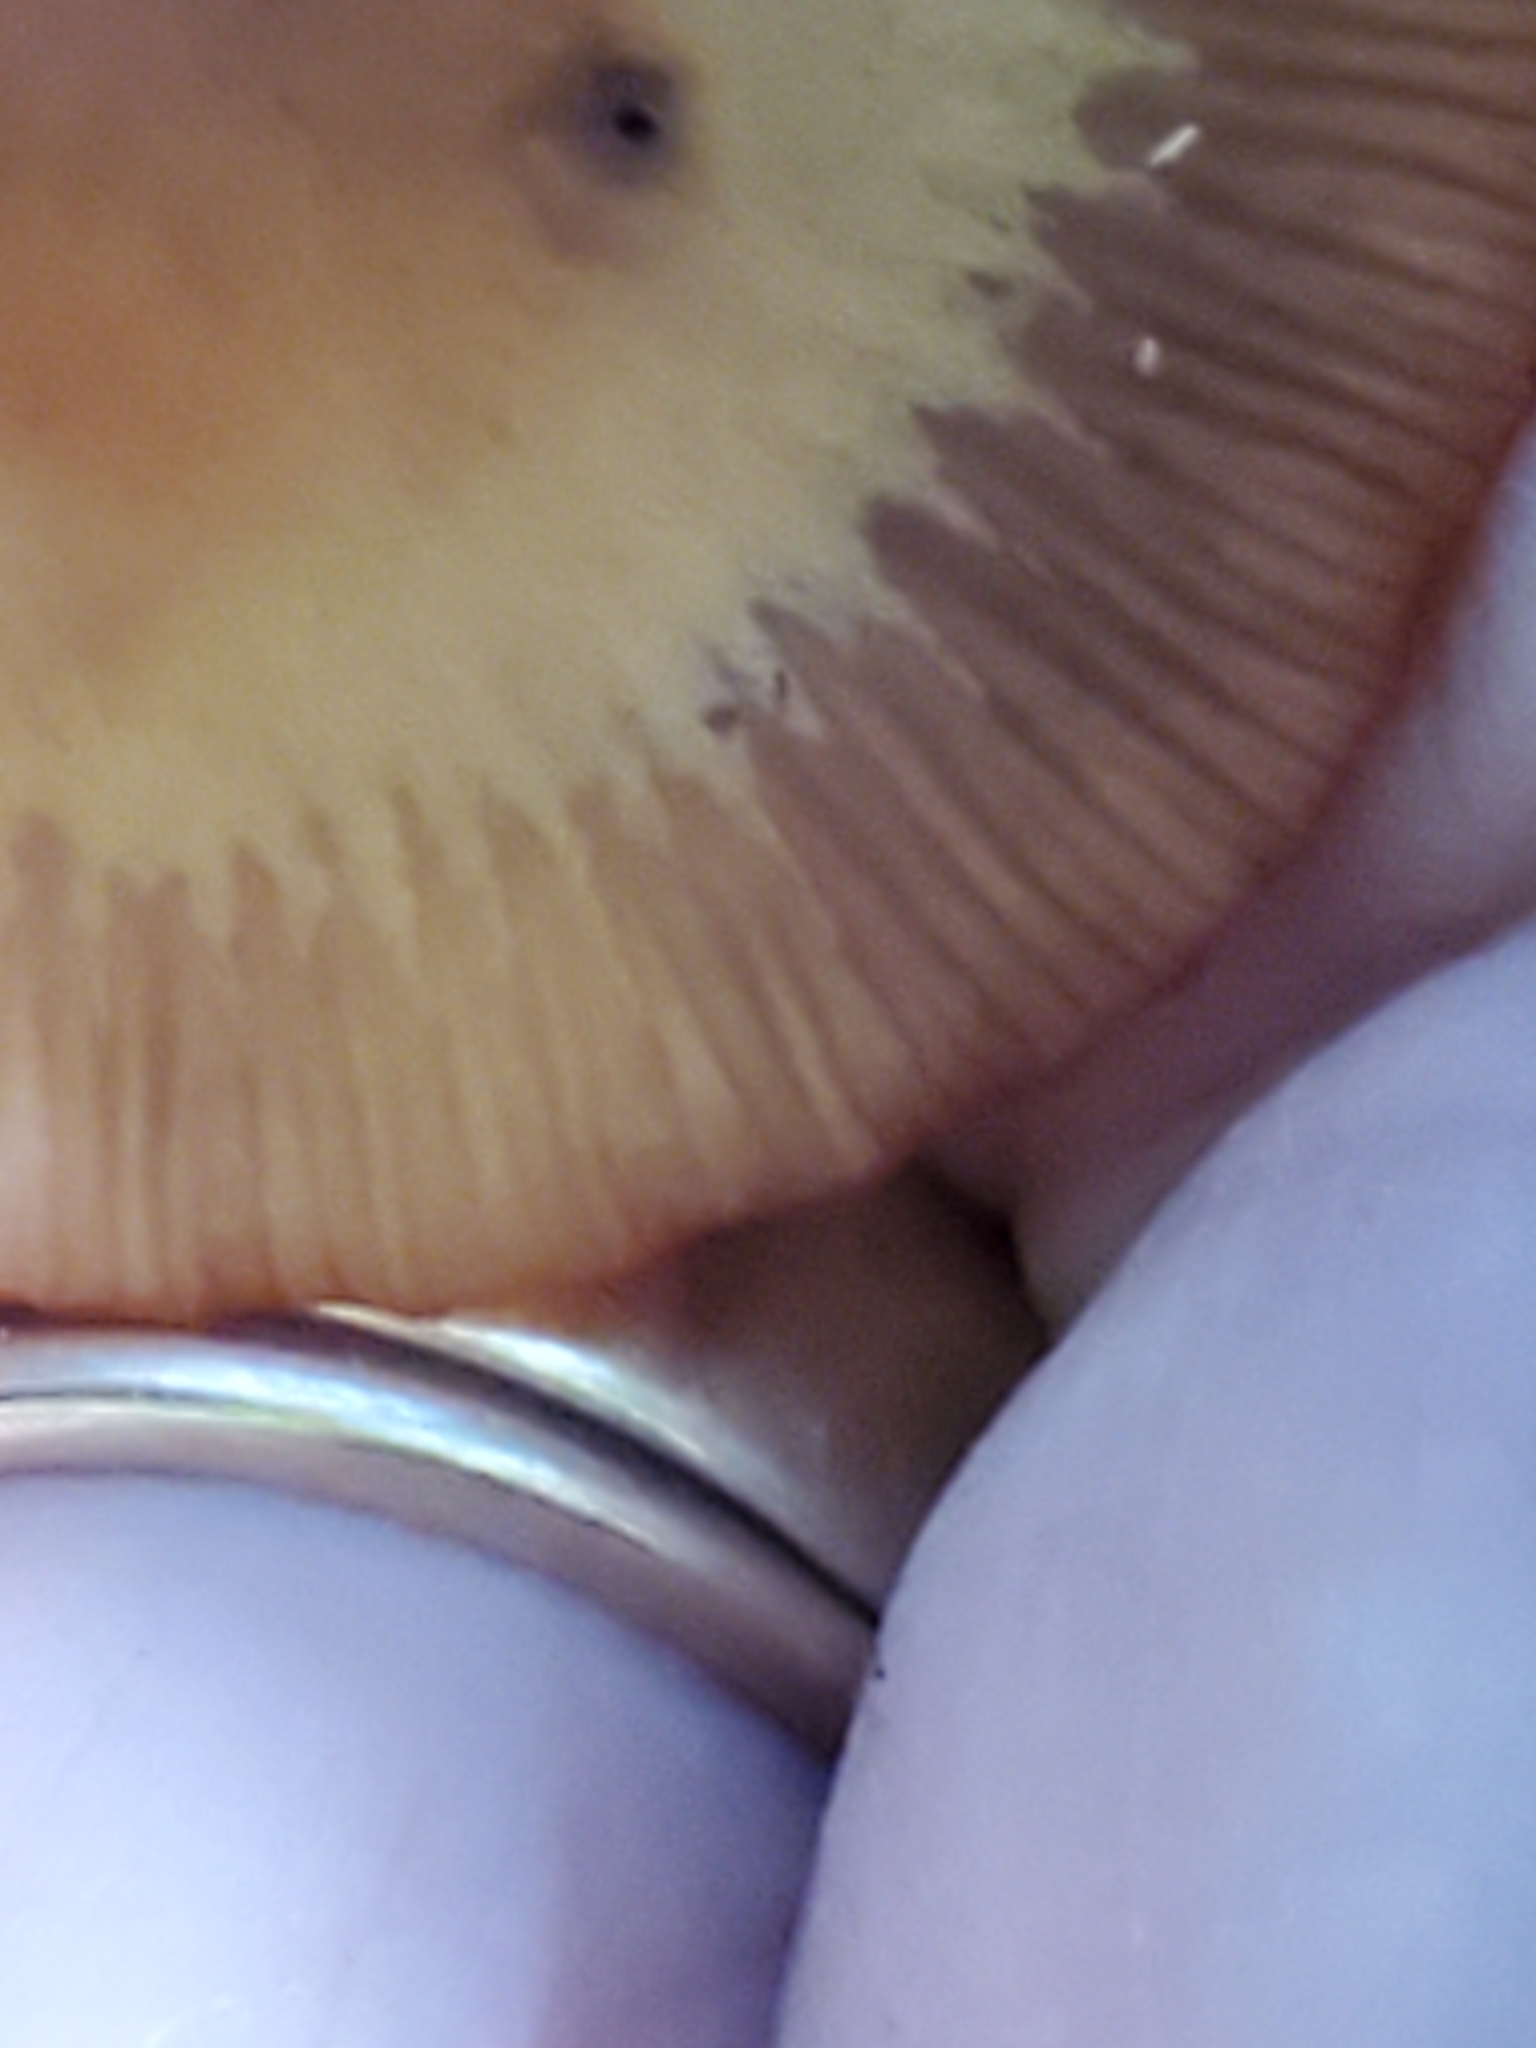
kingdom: Fungi
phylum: Basidiomycota
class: Agaricomycetes
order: Agaricales
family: Mycenaceae
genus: Mycena
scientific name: Mycena leaiana
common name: Orange mycena
